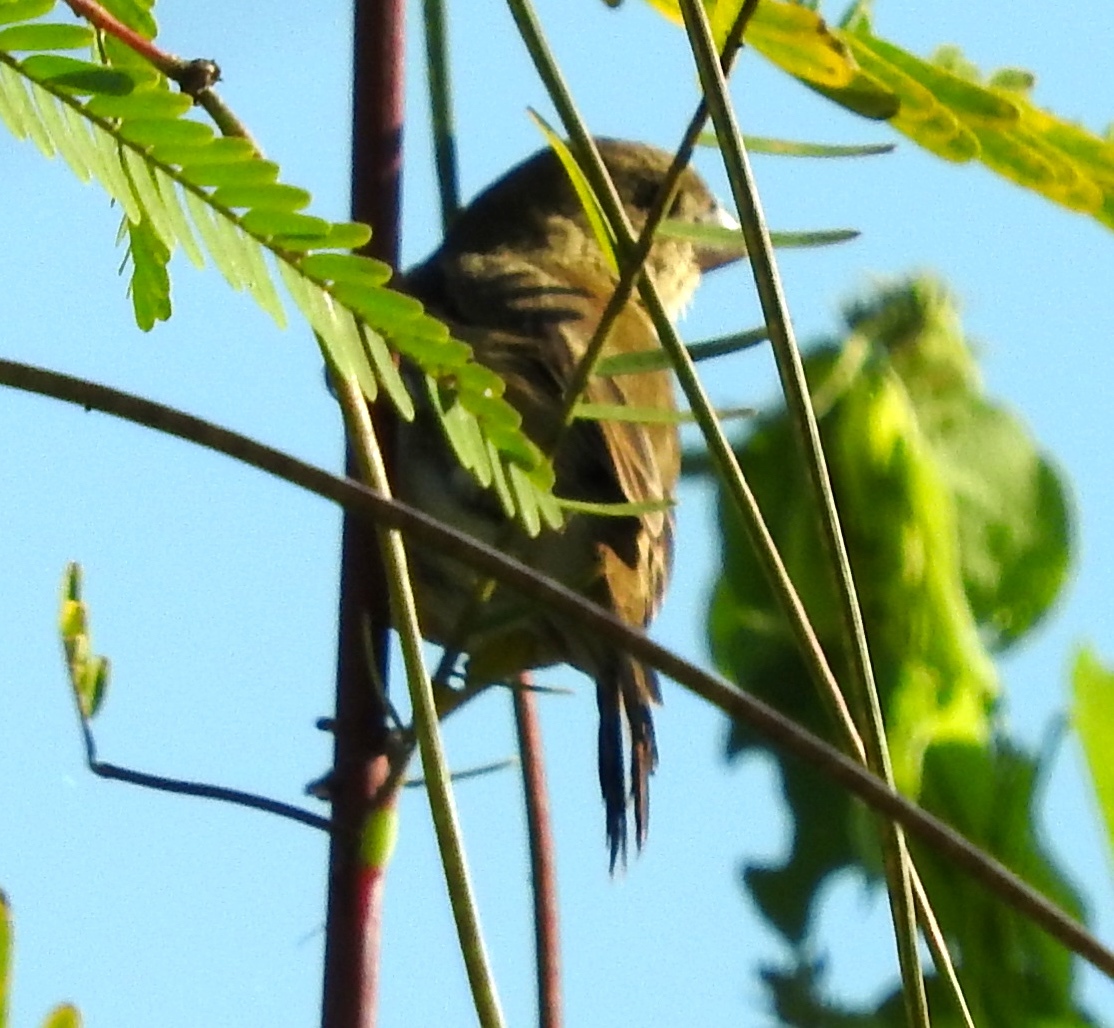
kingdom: Animalia
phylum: Chordata
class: Aves
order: Passeriformes
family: Thraupidae
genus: Sporophila
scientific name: Sporophila torqueola
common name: White-collared seedeater
